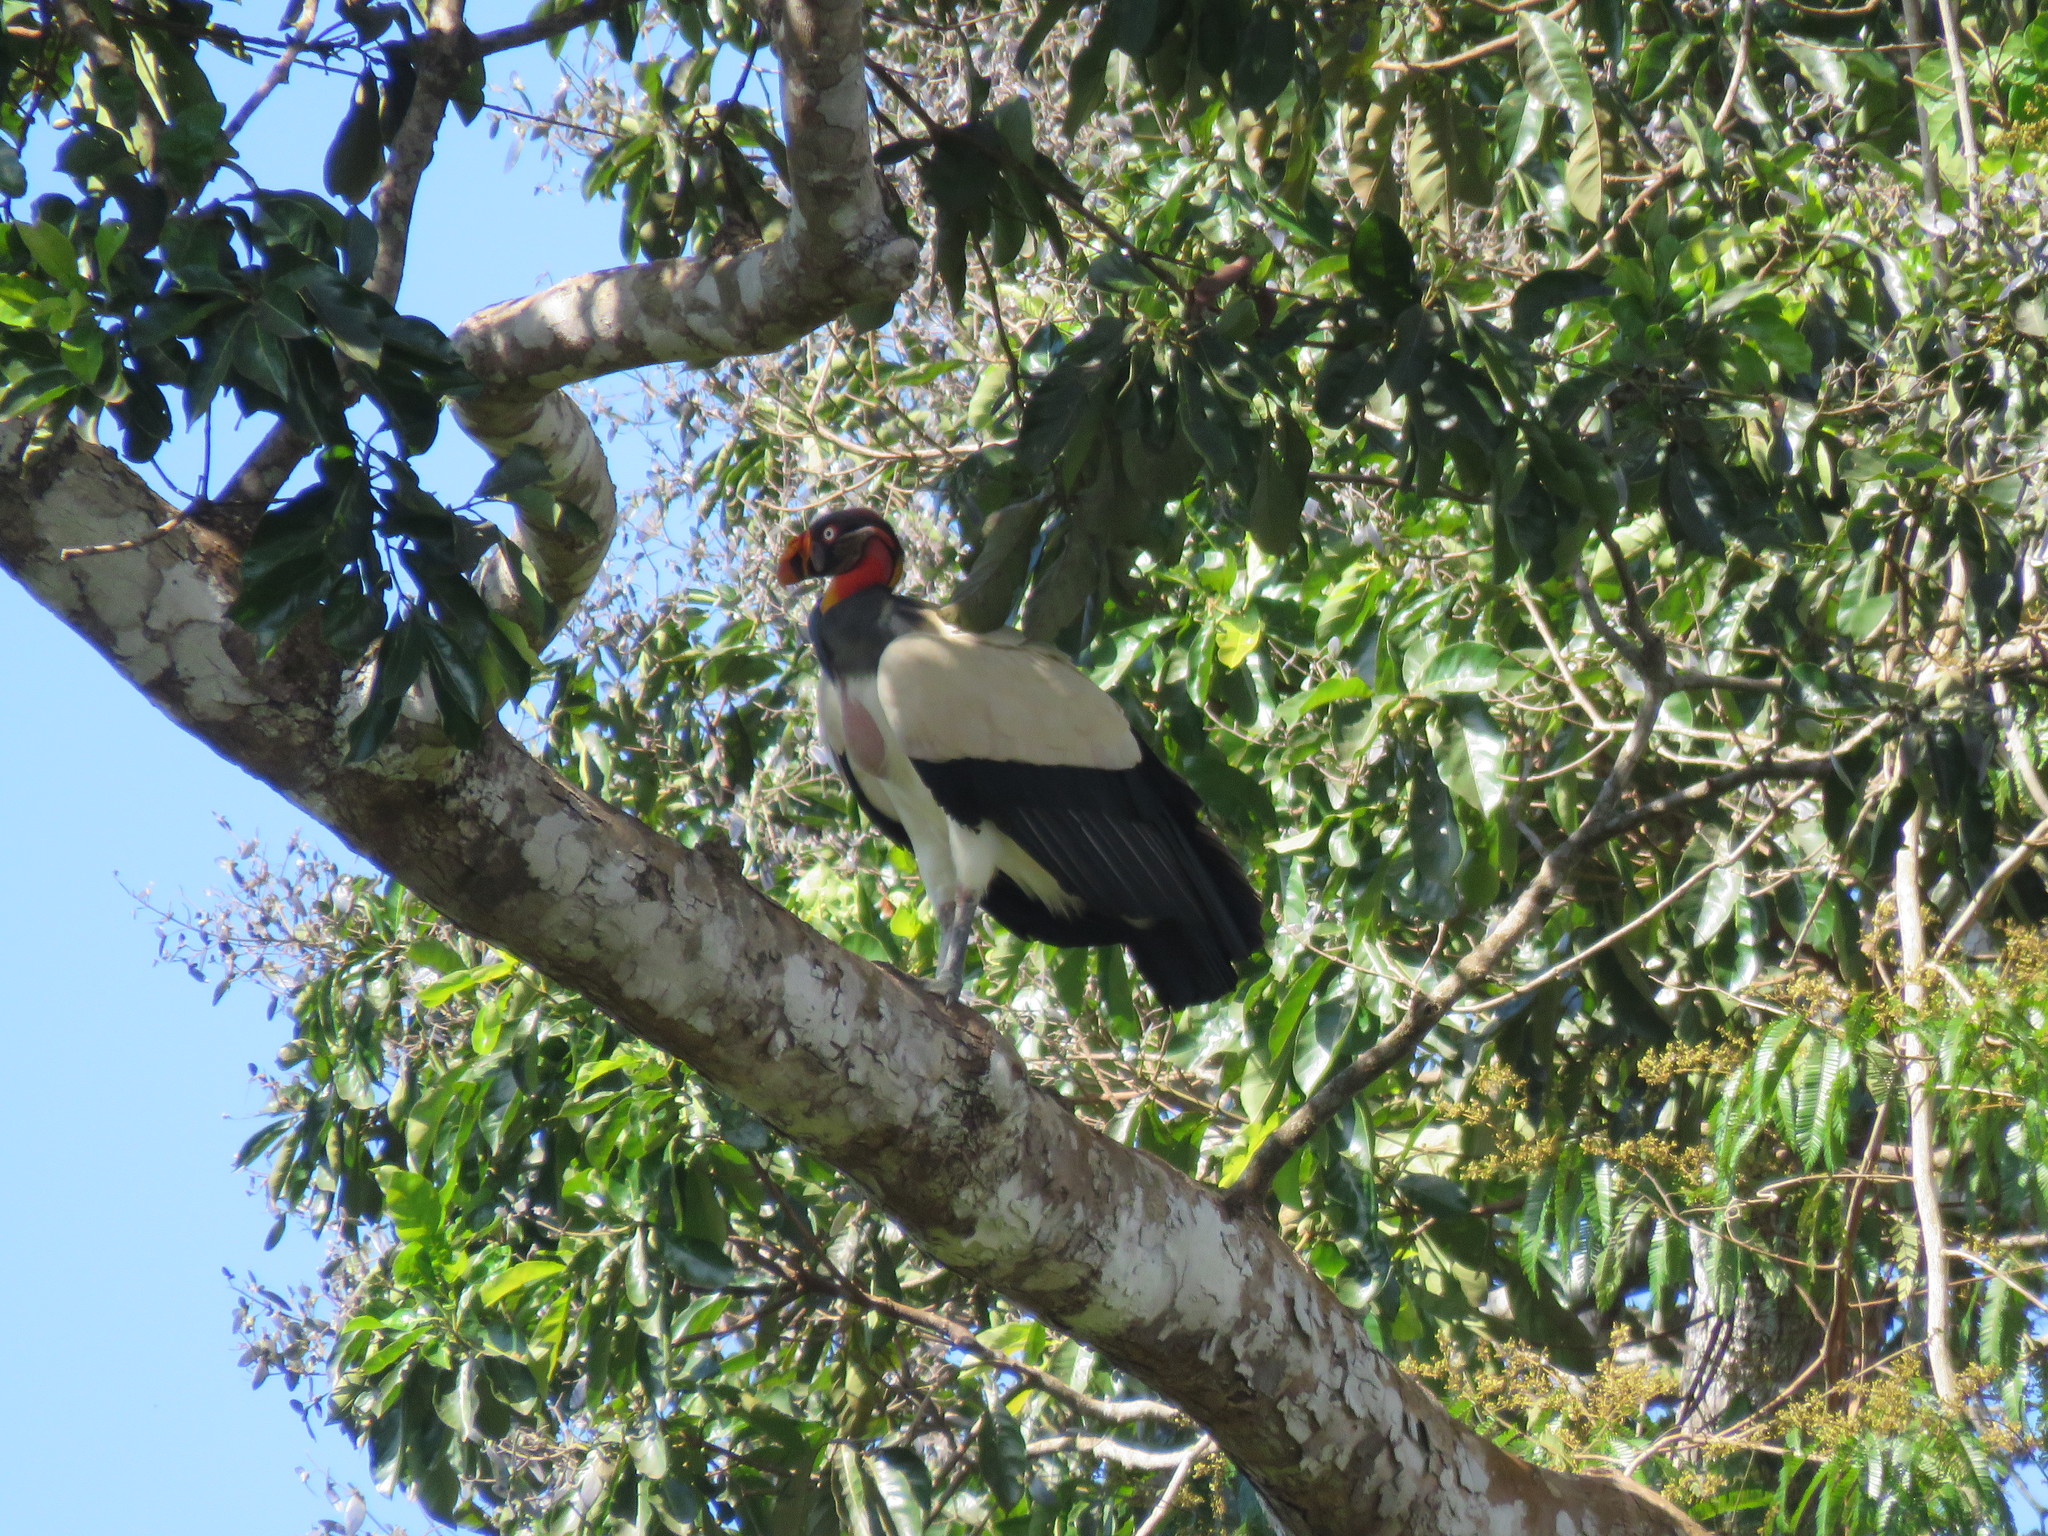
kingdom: Animalia
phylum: Chordata
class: Aves
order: Accipitriformes
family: Cathartidae
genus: Sarcoramphus
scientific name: Sarcoramphus papa
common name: King vulture
